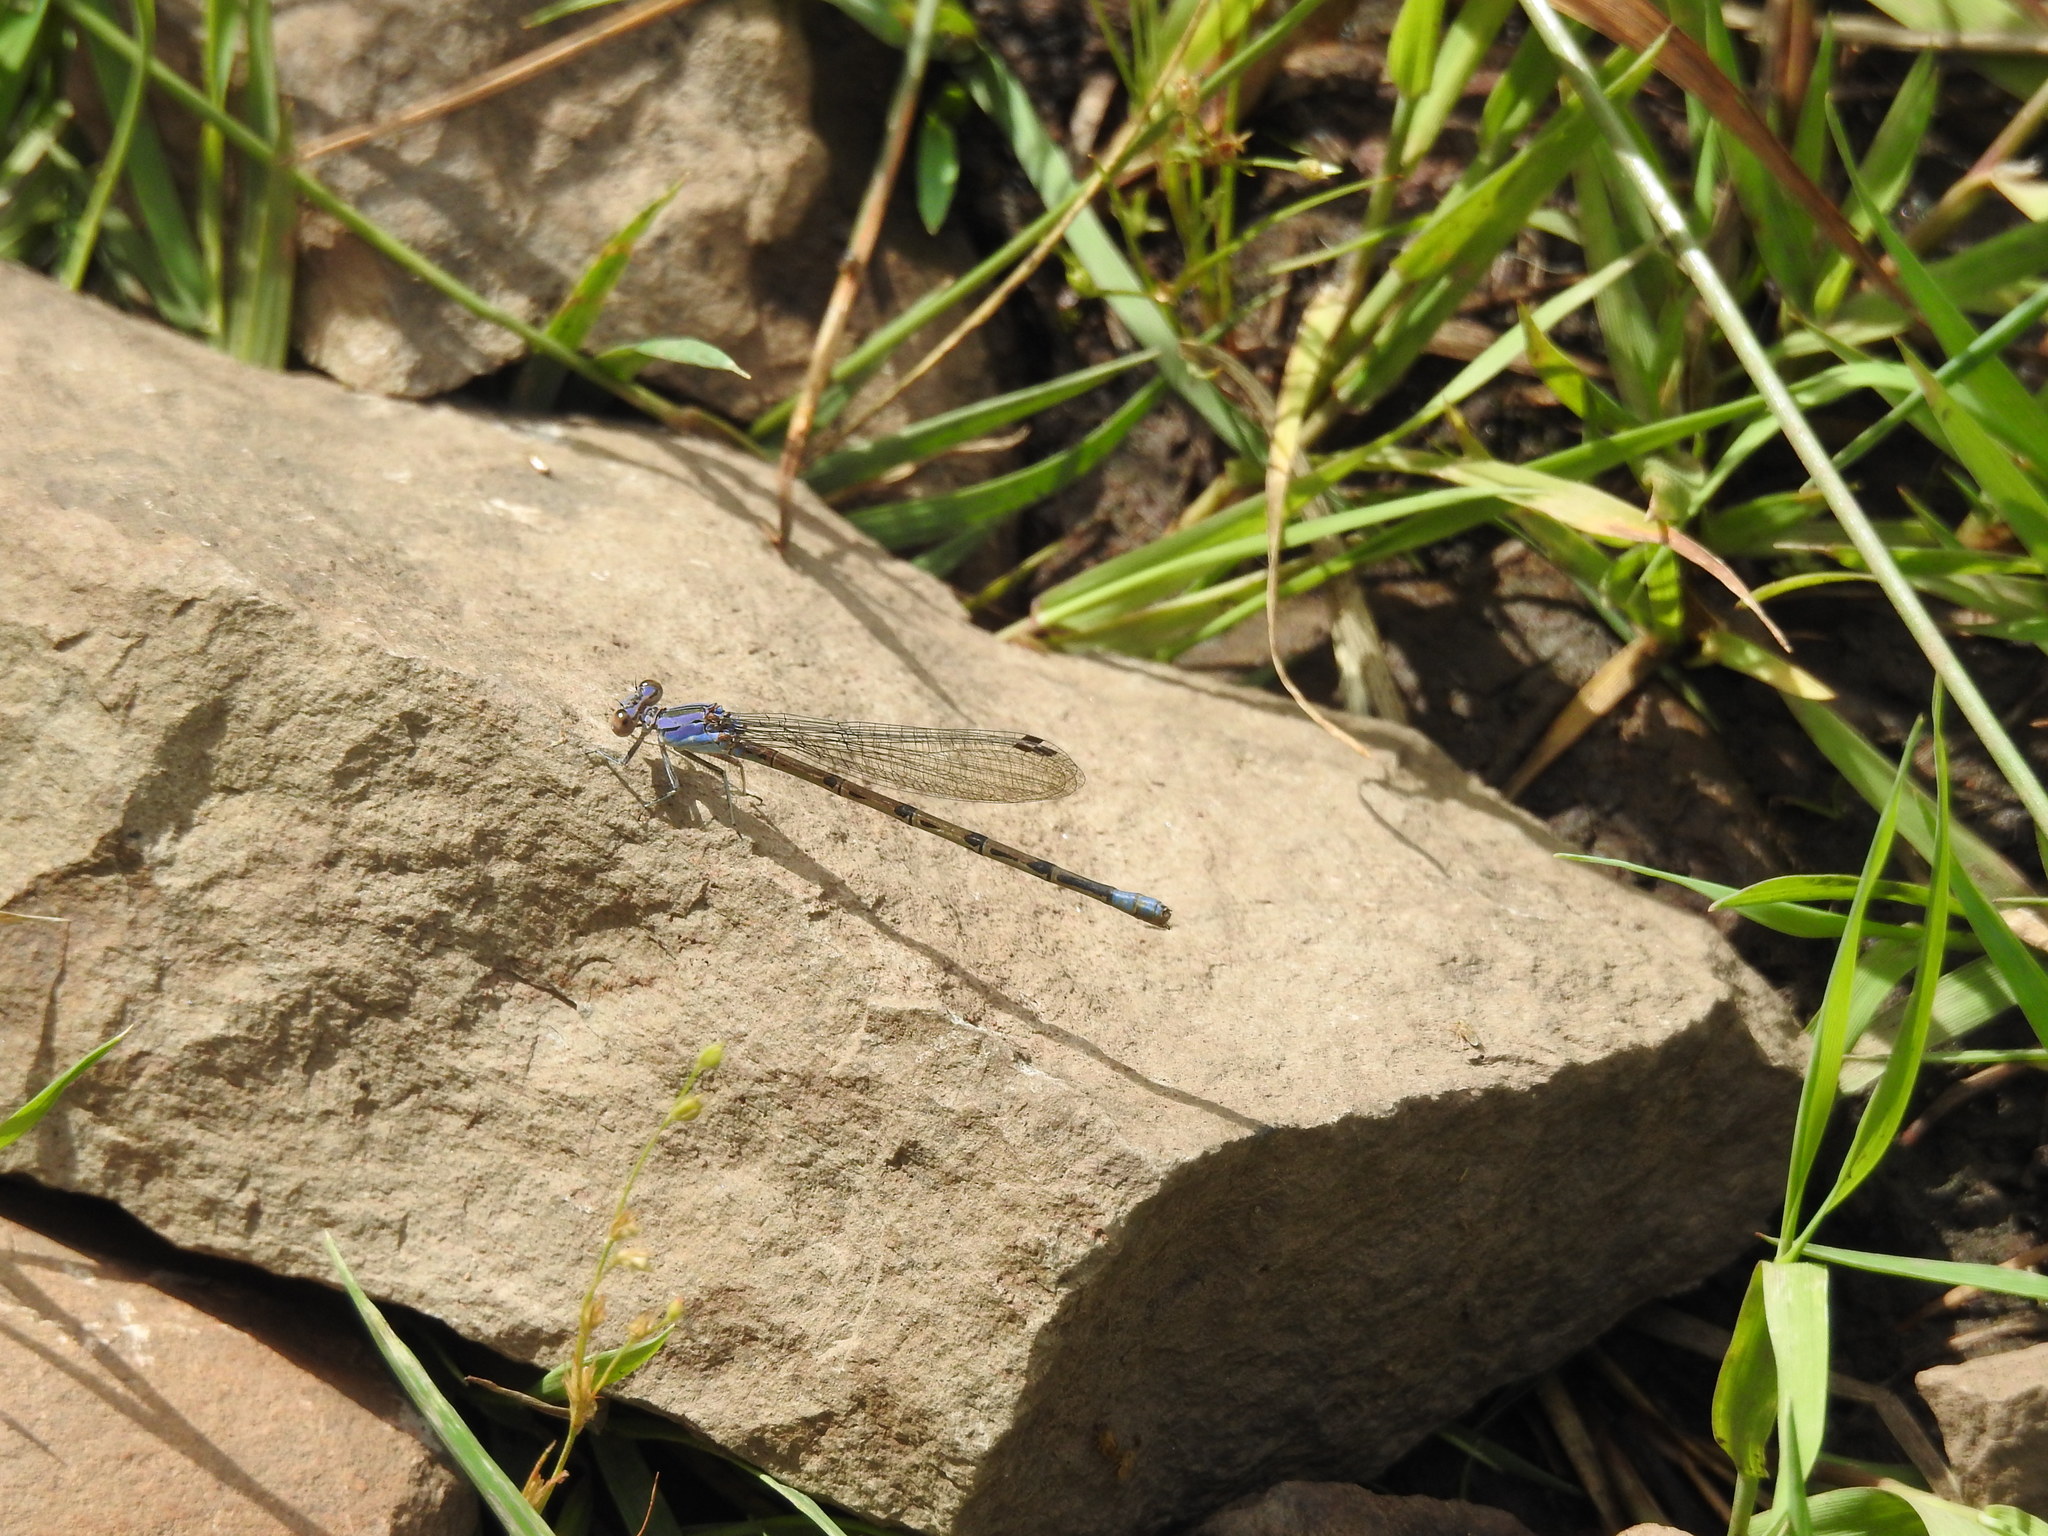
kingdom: Animalia
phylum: Arthropoda
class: Insecta
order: Odonata
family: Coenagrionidae
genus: Argia
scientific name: Argia funebris
